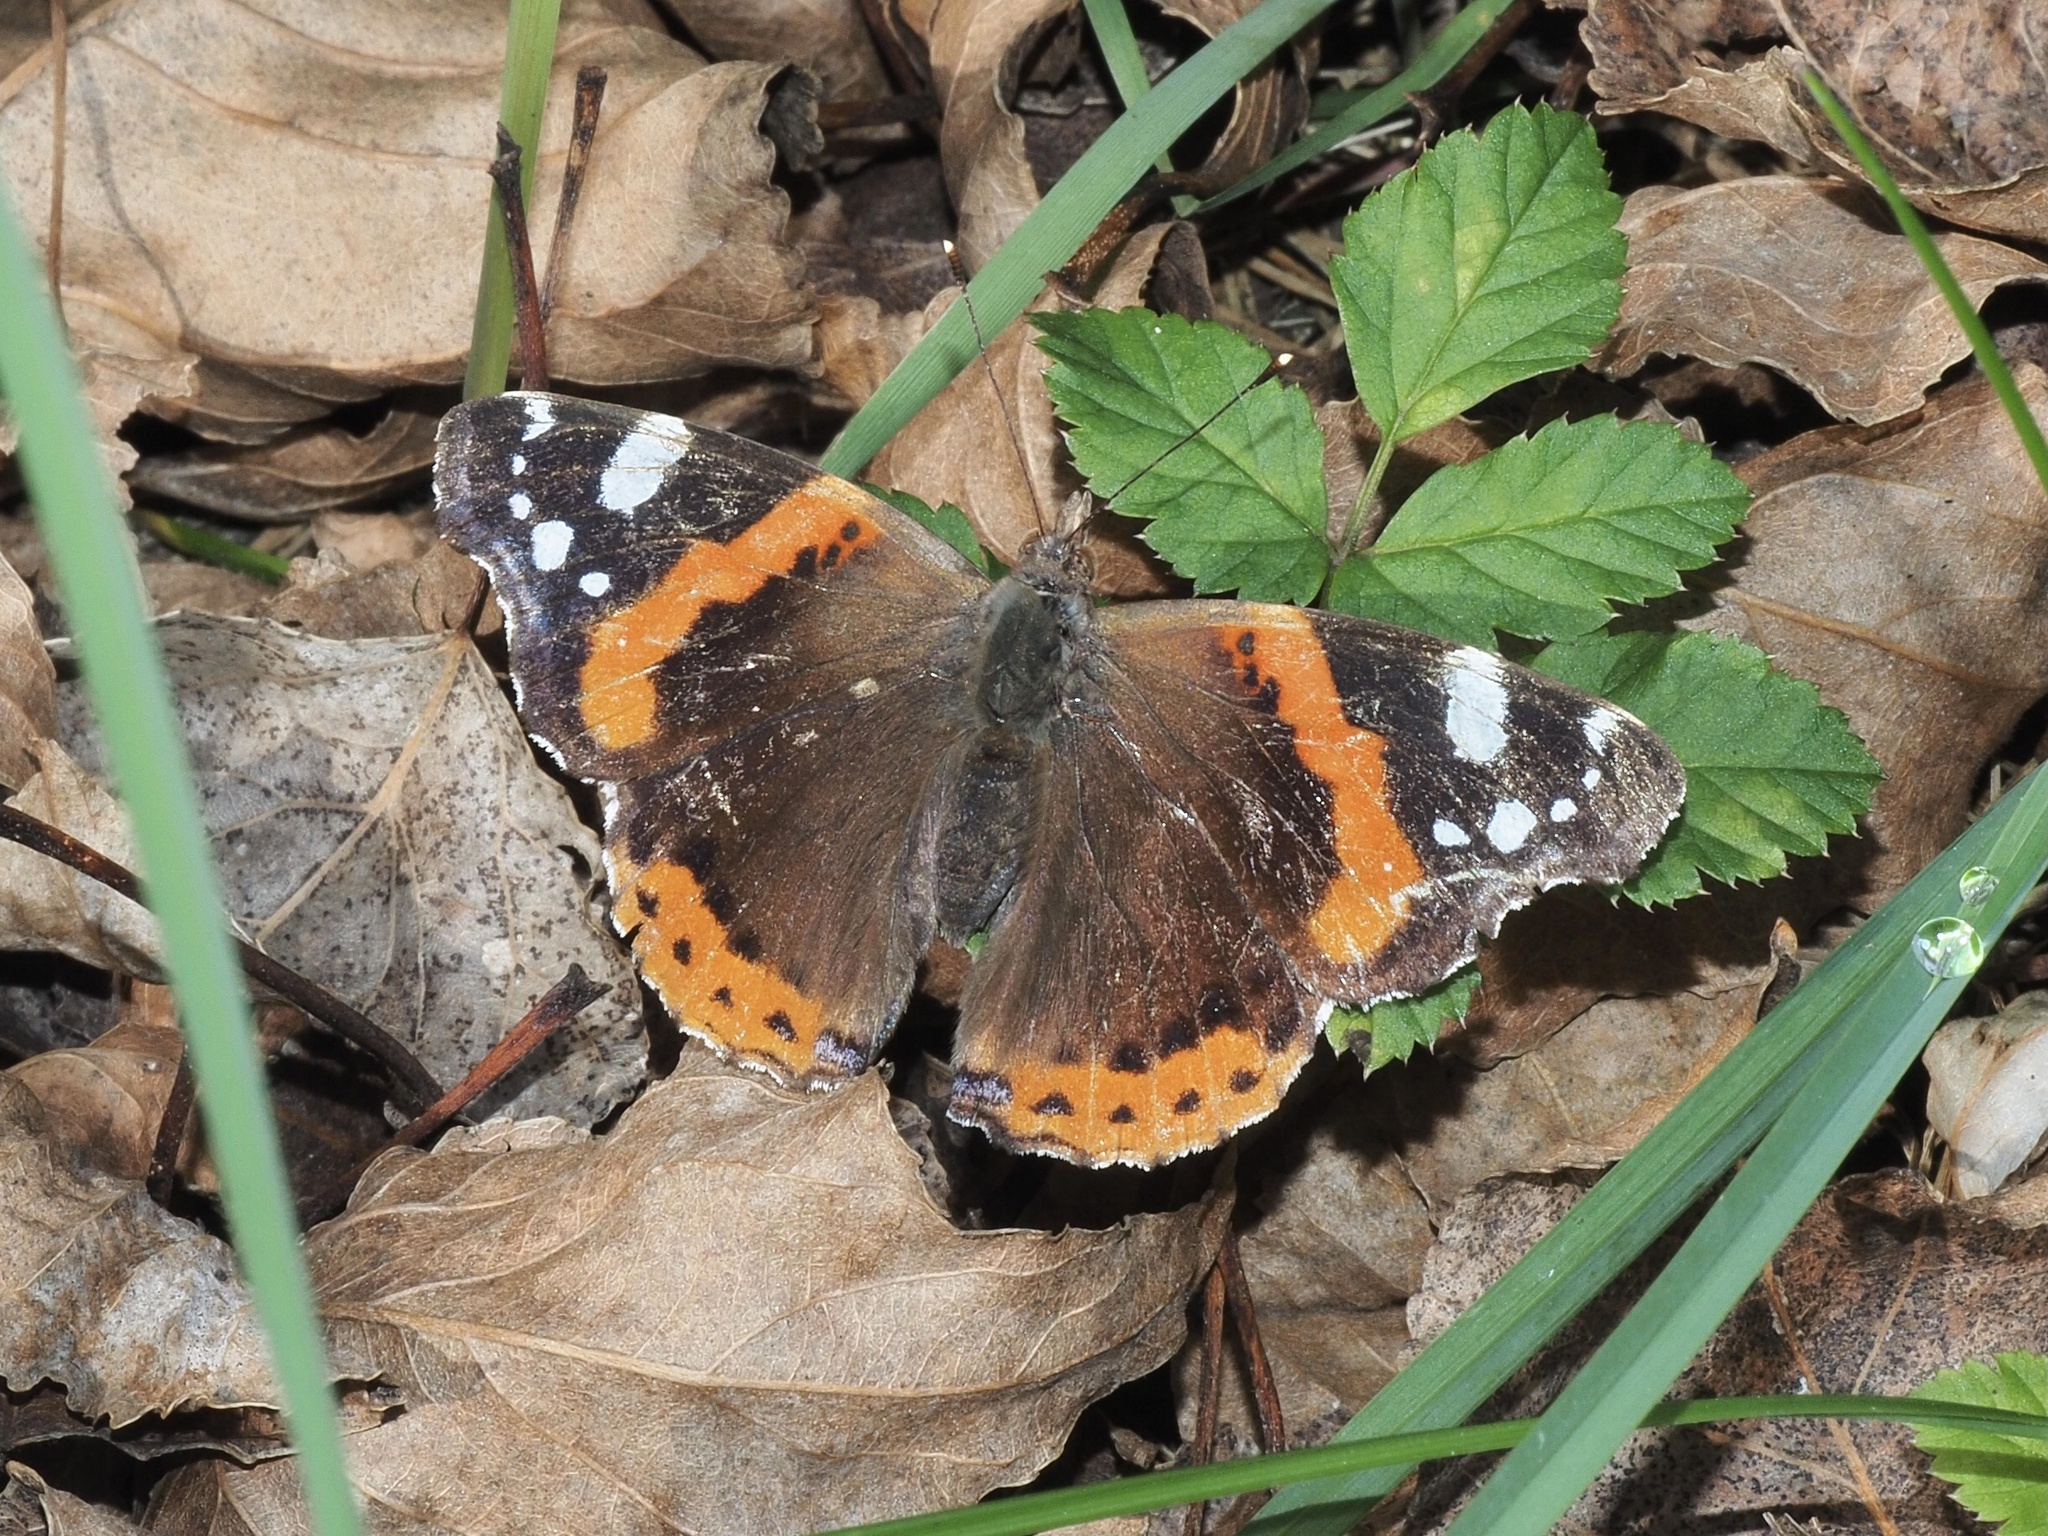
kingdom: Animalia
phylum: Arthropoda
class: Insecta
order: Lepidoptera
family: Nymphalidae
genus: Vanessa
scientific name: Vanessa atalanta
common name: Red admiral
